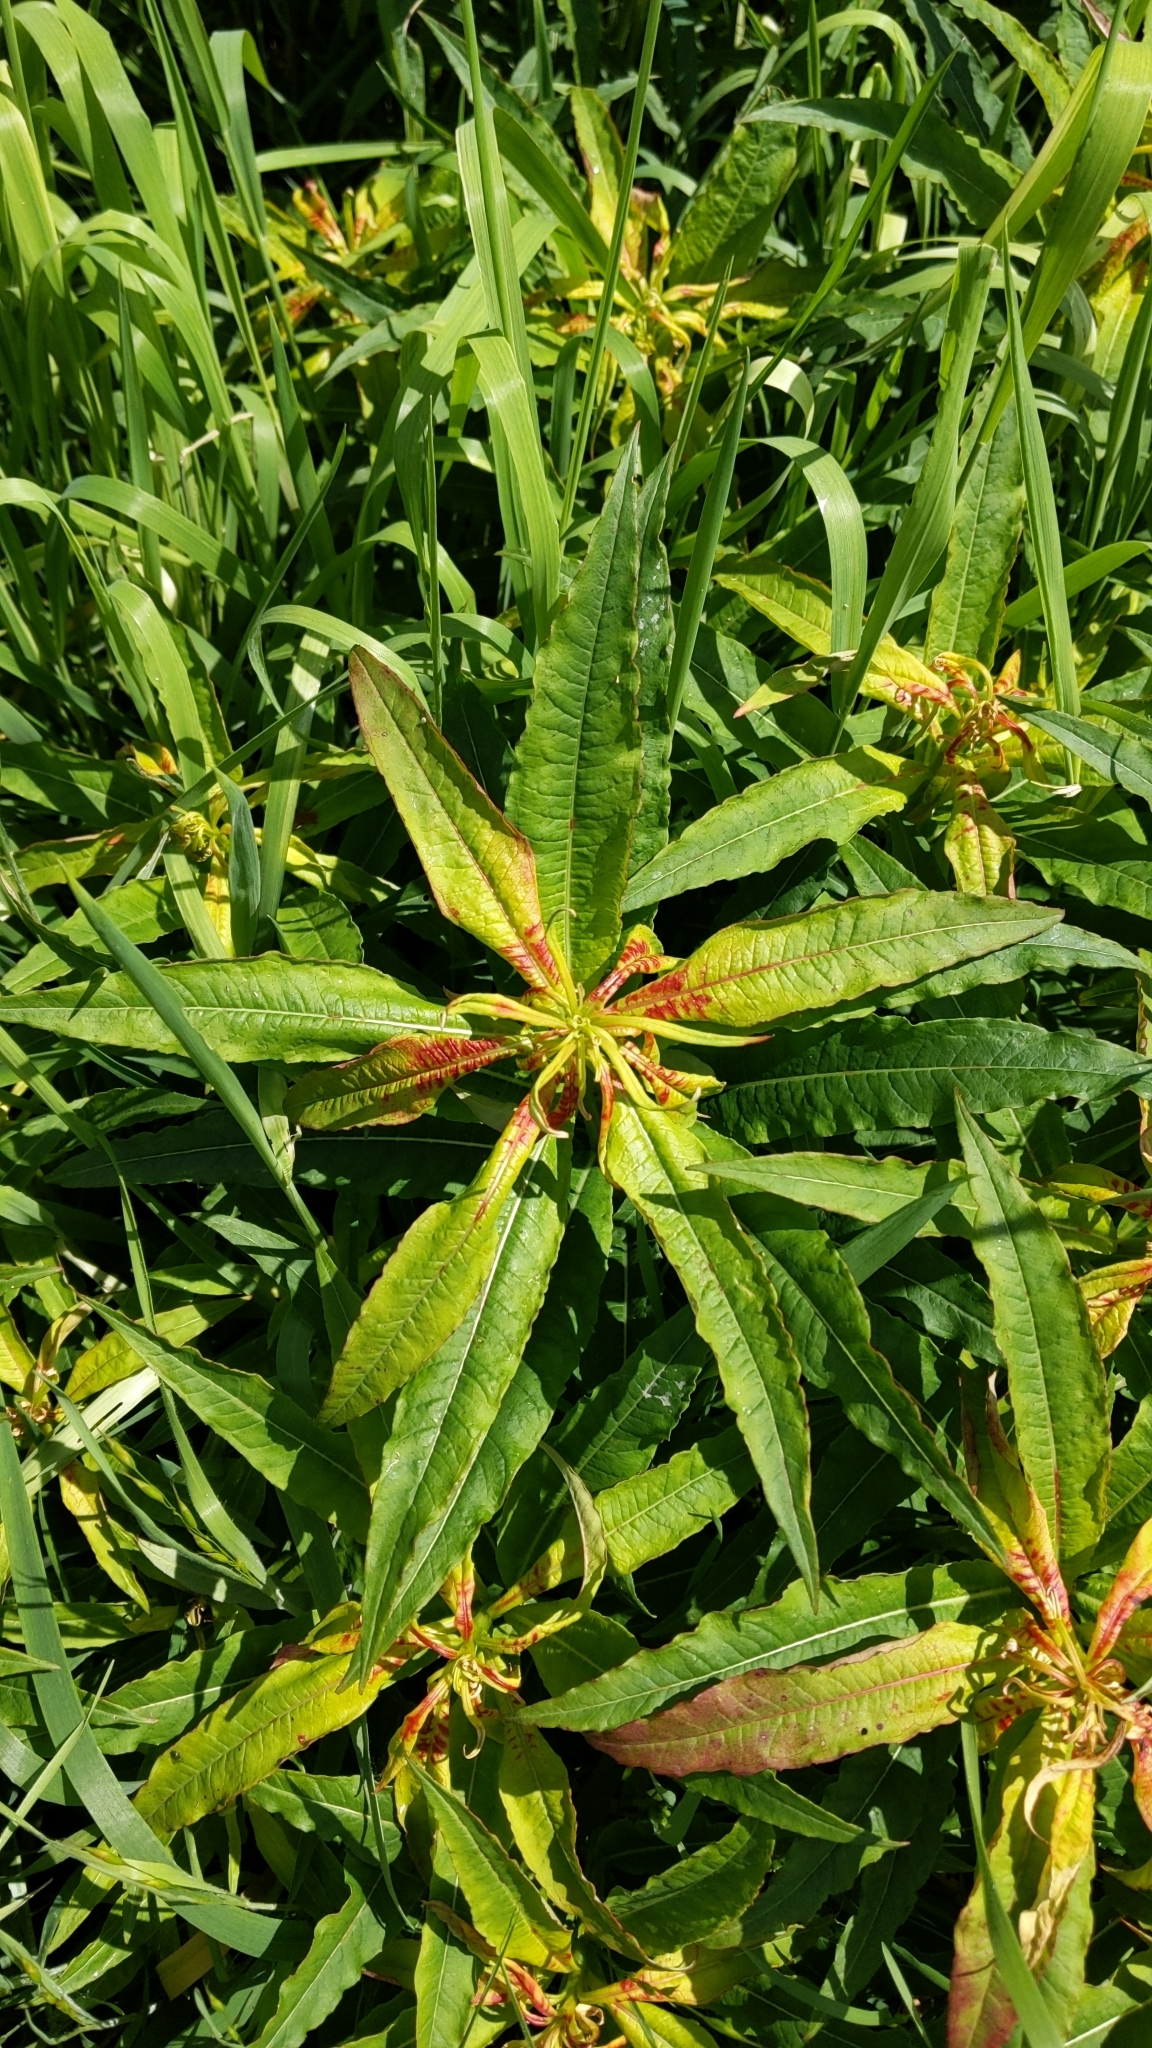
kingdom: Plantae
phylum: Tracheophyta
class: Magnoliopsida
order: Myrtales
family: Onagraceae
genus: Chamaenerion
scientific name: Chamaenerion angustifolium
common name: Fireweed
